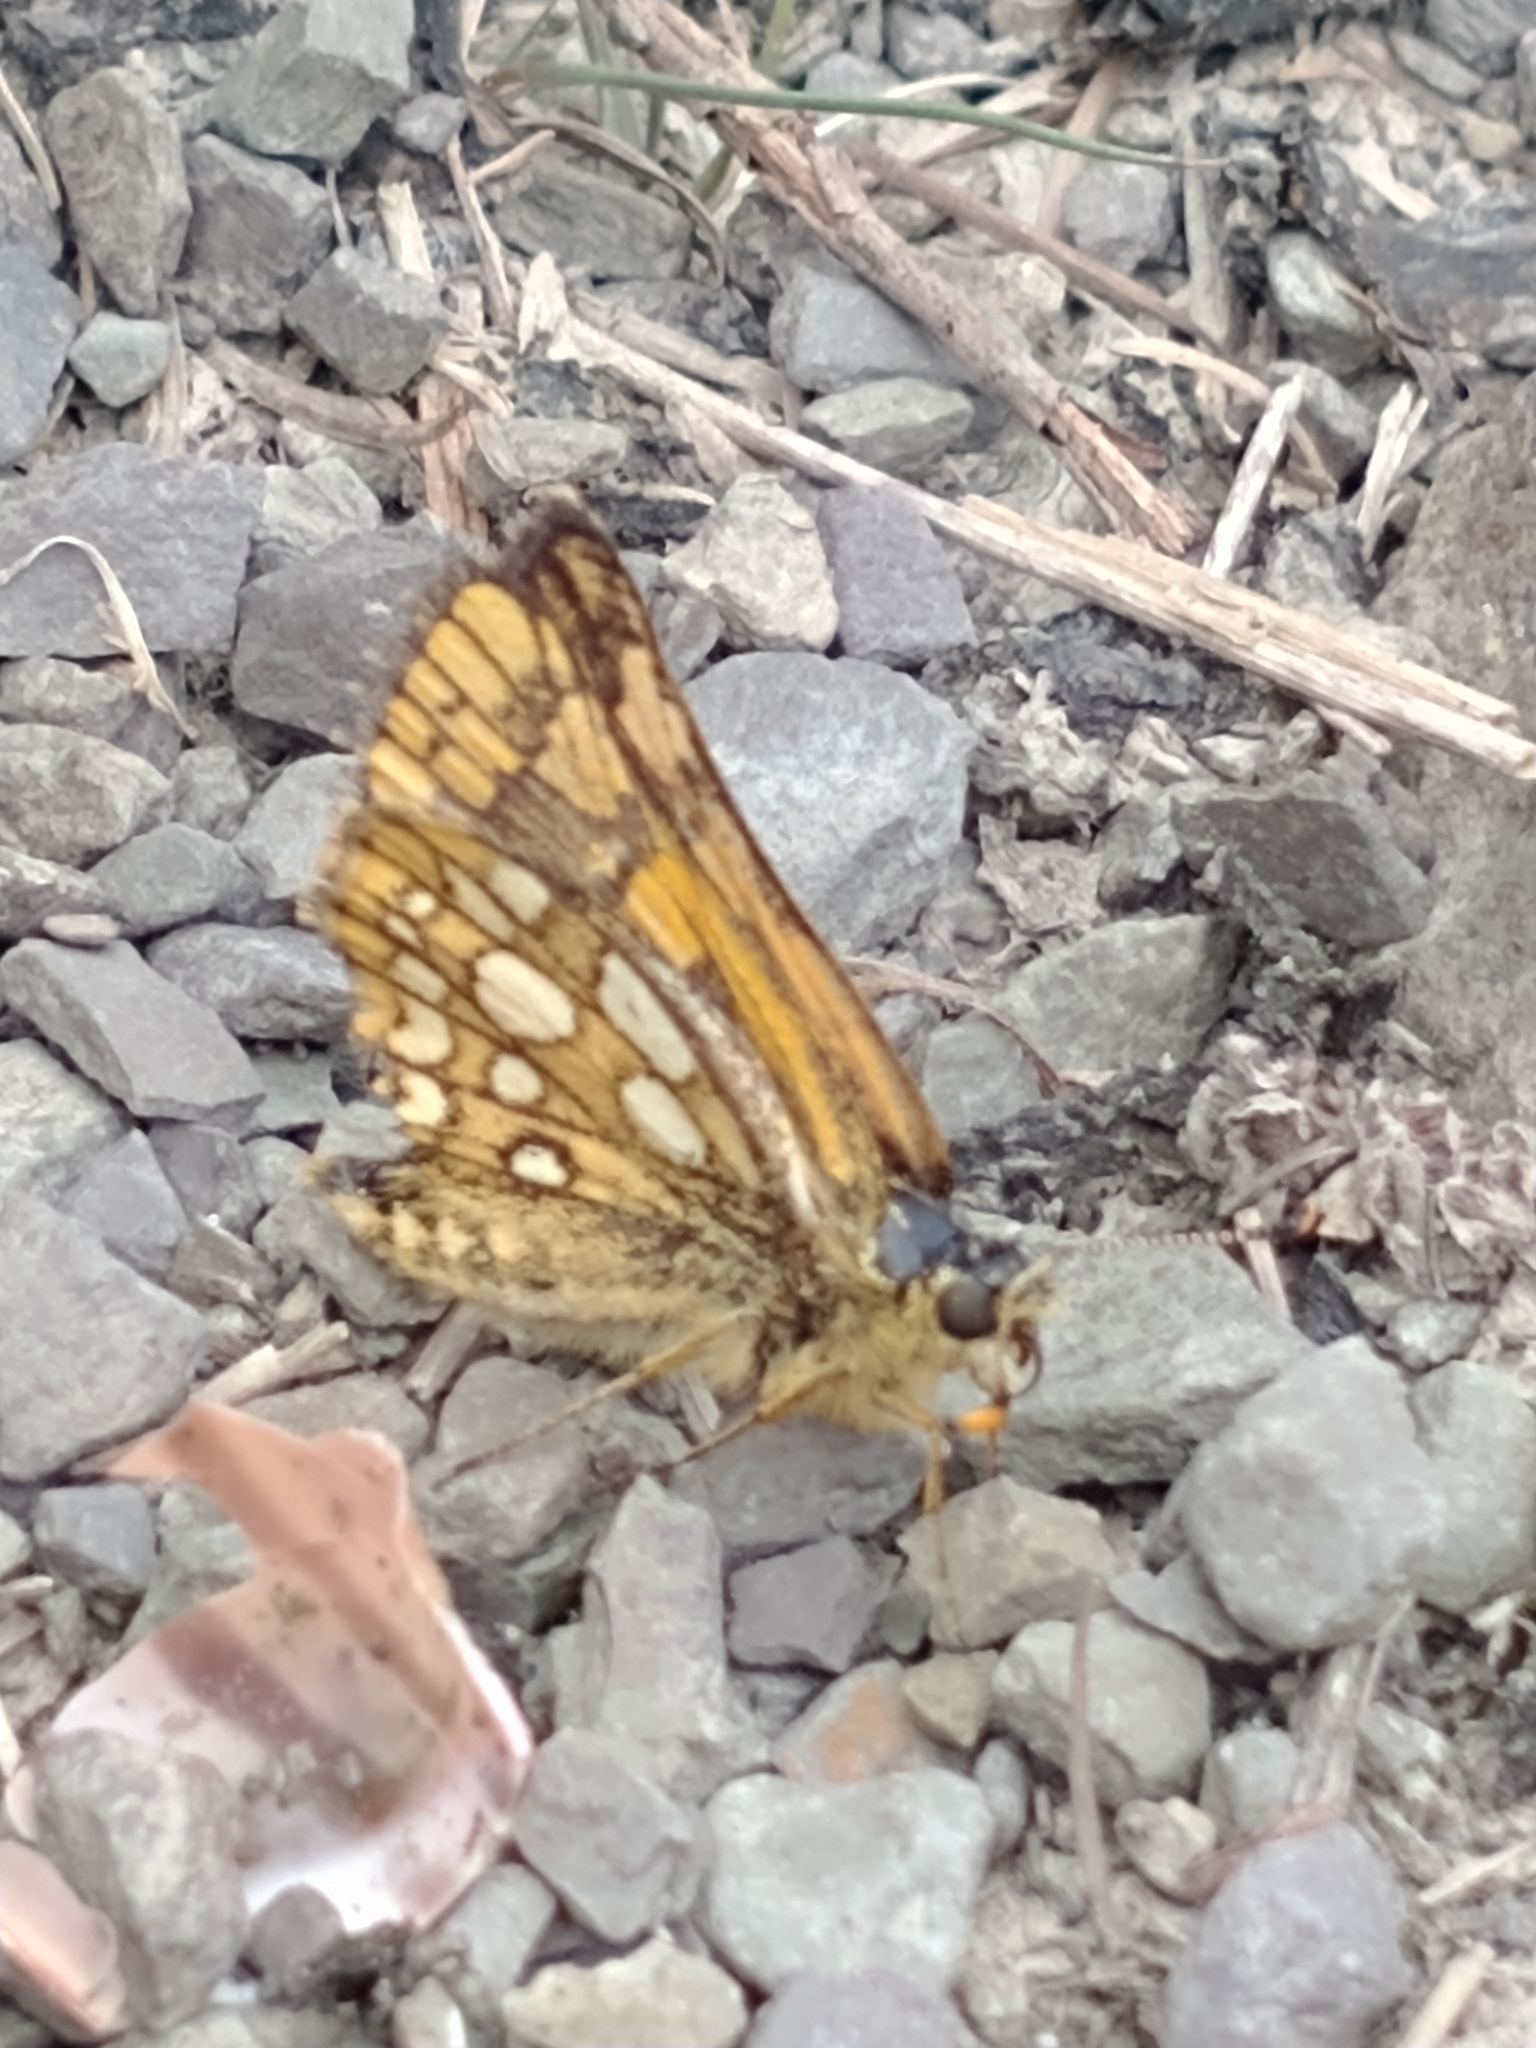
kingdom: Animalia
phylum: Arthropoda
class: Insecta
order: Lepidoptera
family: Hesperiidae
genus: Carterocephalus
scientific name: Carterocephalus palaemon
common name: Chequered skipper
